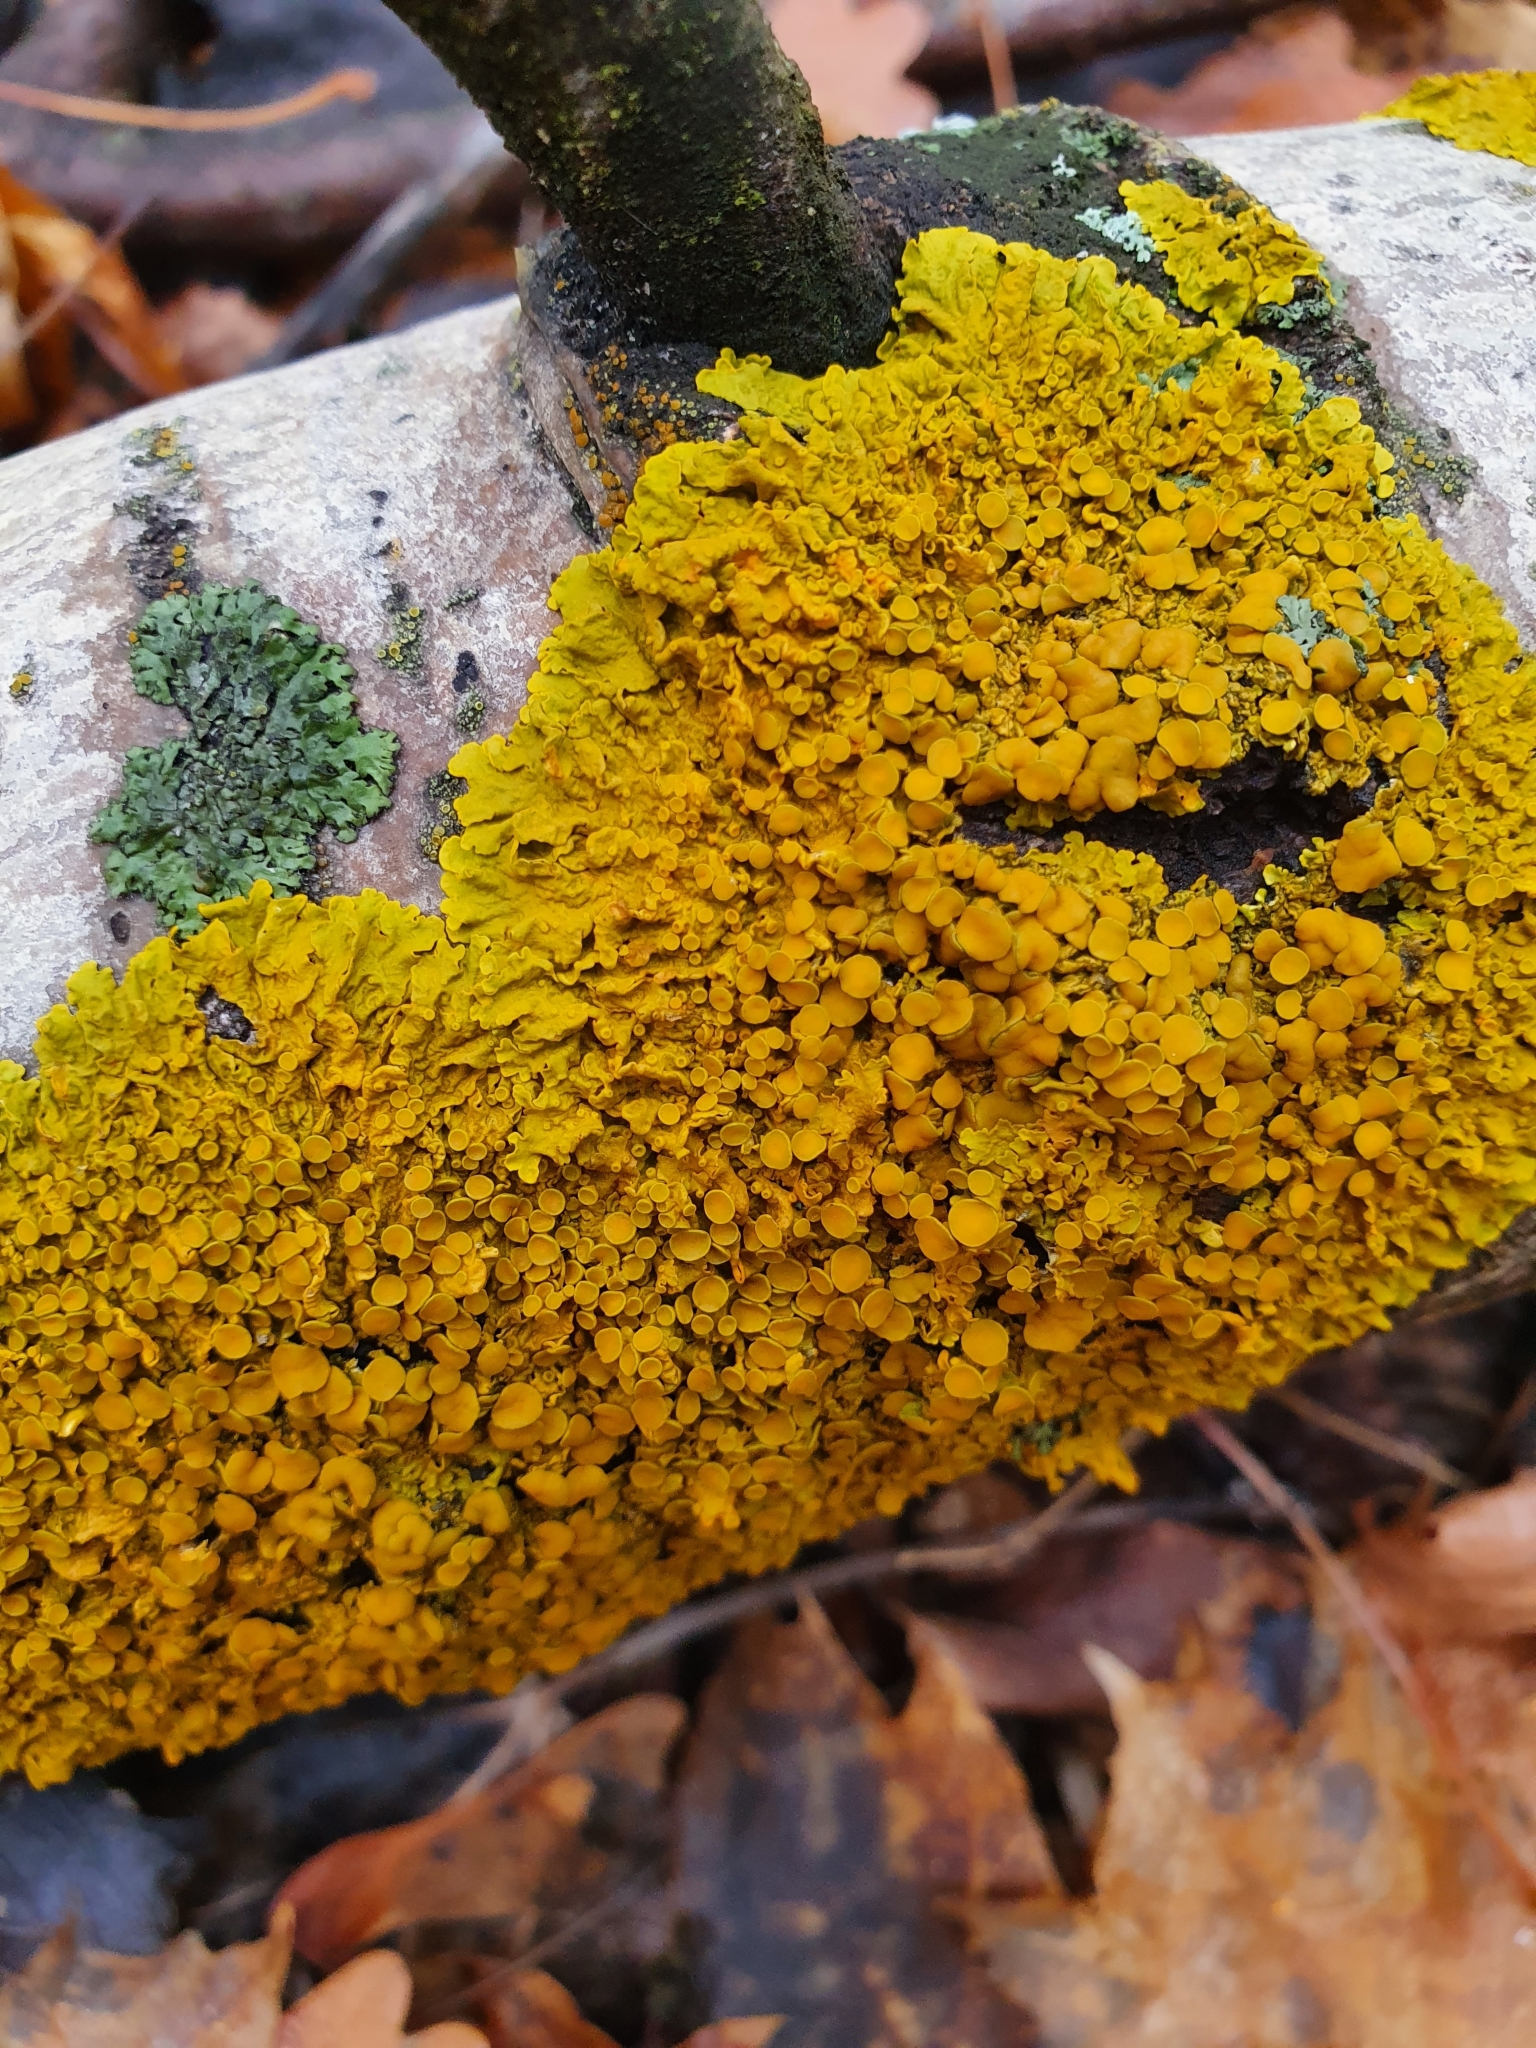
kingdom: Fungi
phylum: Ascomycota
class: Lecanoromycetes
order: Teloschistales
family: Teloschistaceae
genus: Xanthoria
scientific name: Xanthoria parietina
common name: Common orange lichen
